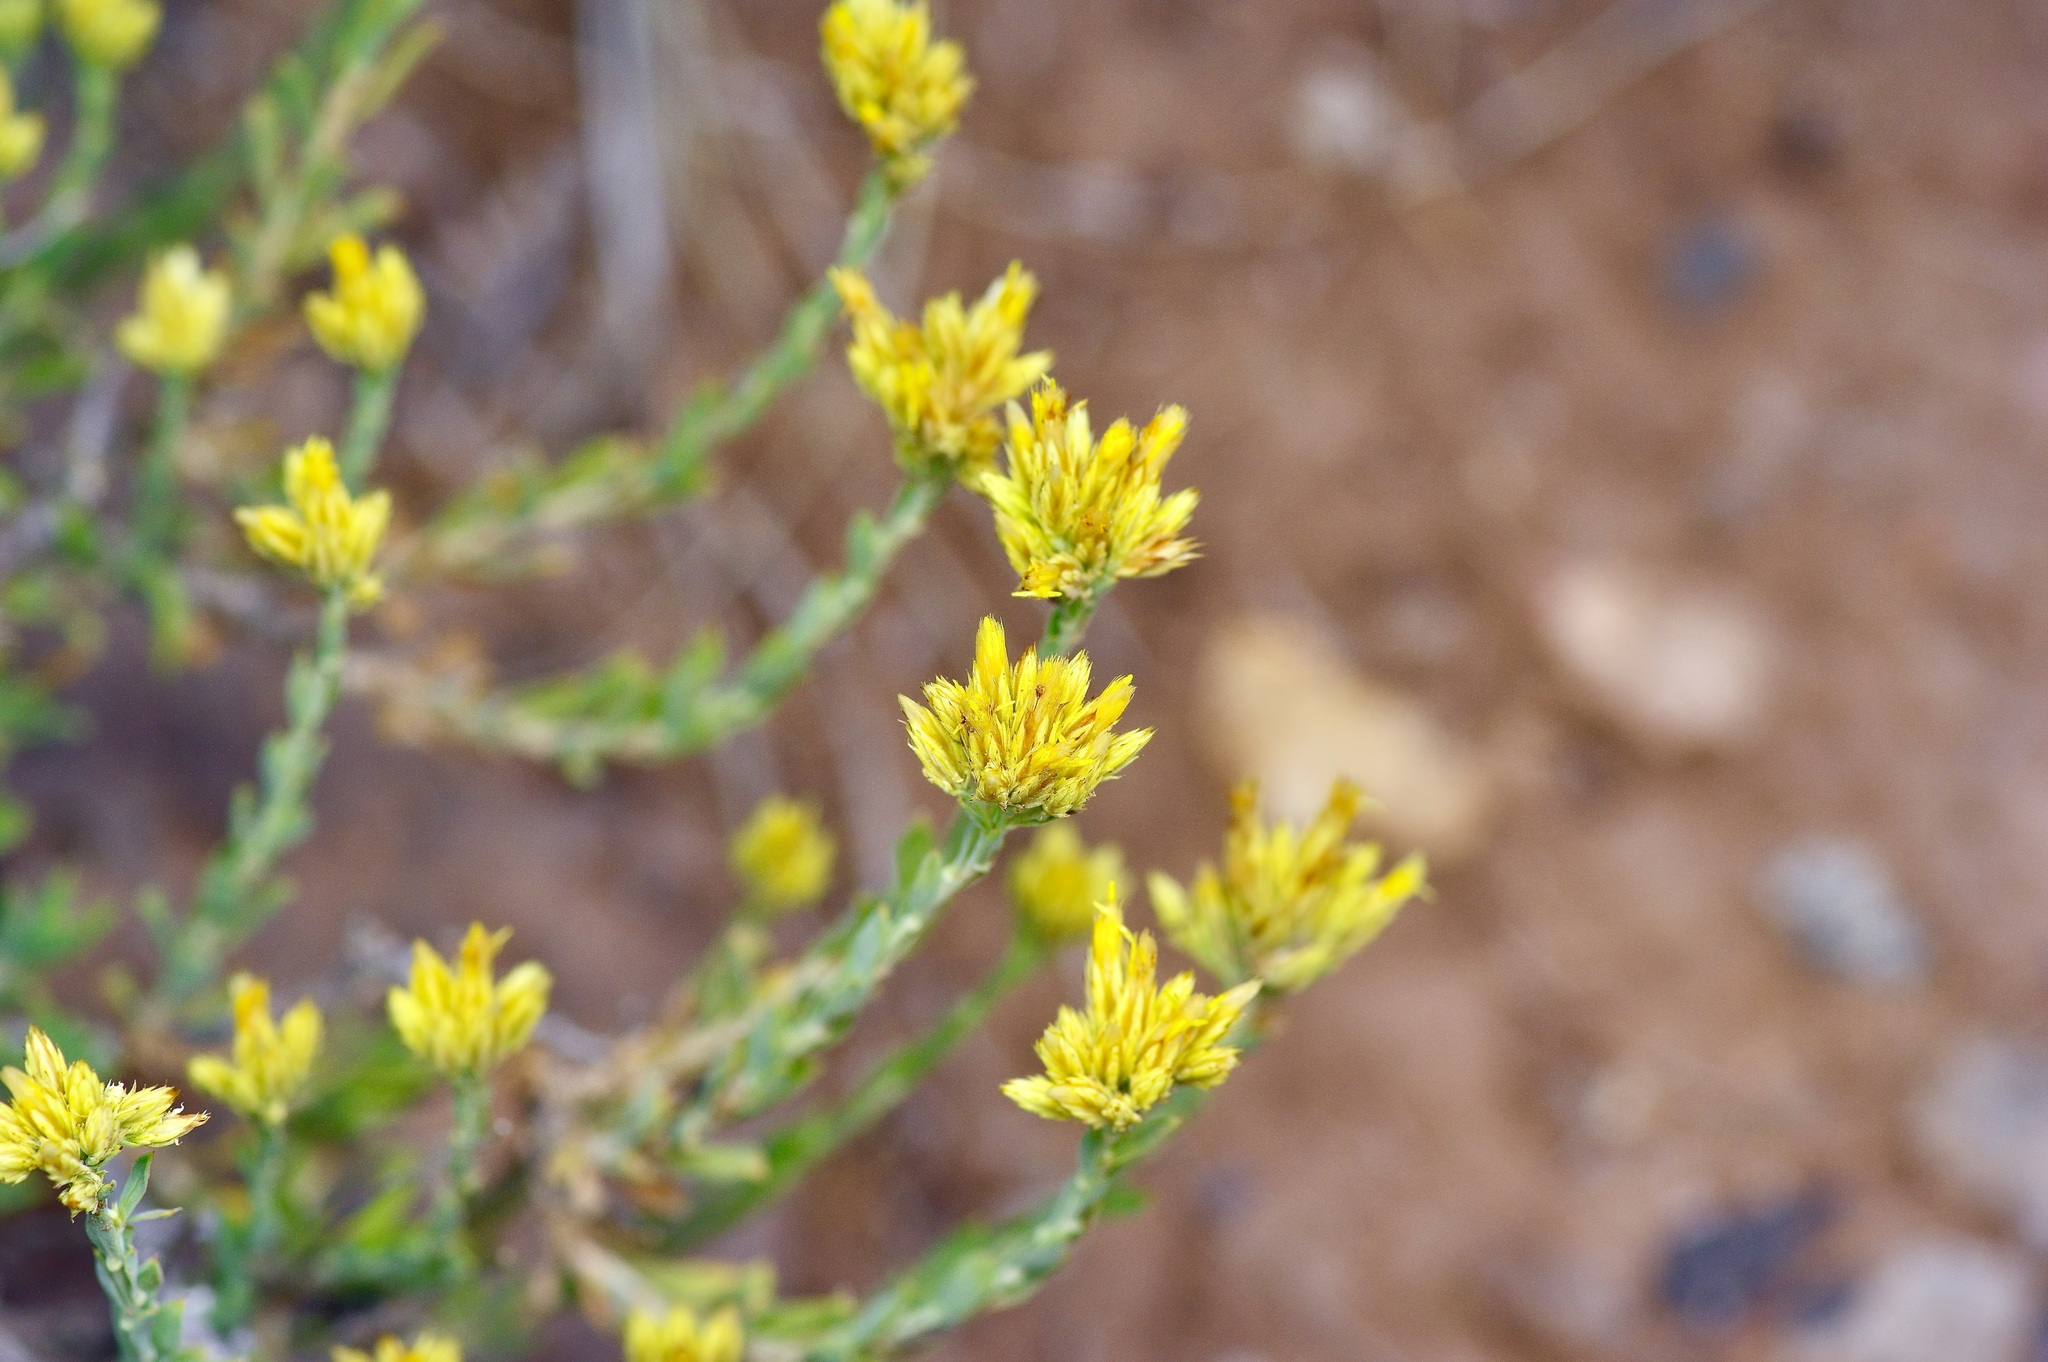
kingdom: Plantae
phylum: Tracheophyta
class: Magnoliopsida
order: Asterales
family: Asteraceae
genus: Petradoria
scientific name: Petradoria pumila
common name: Rock-goldenrod
